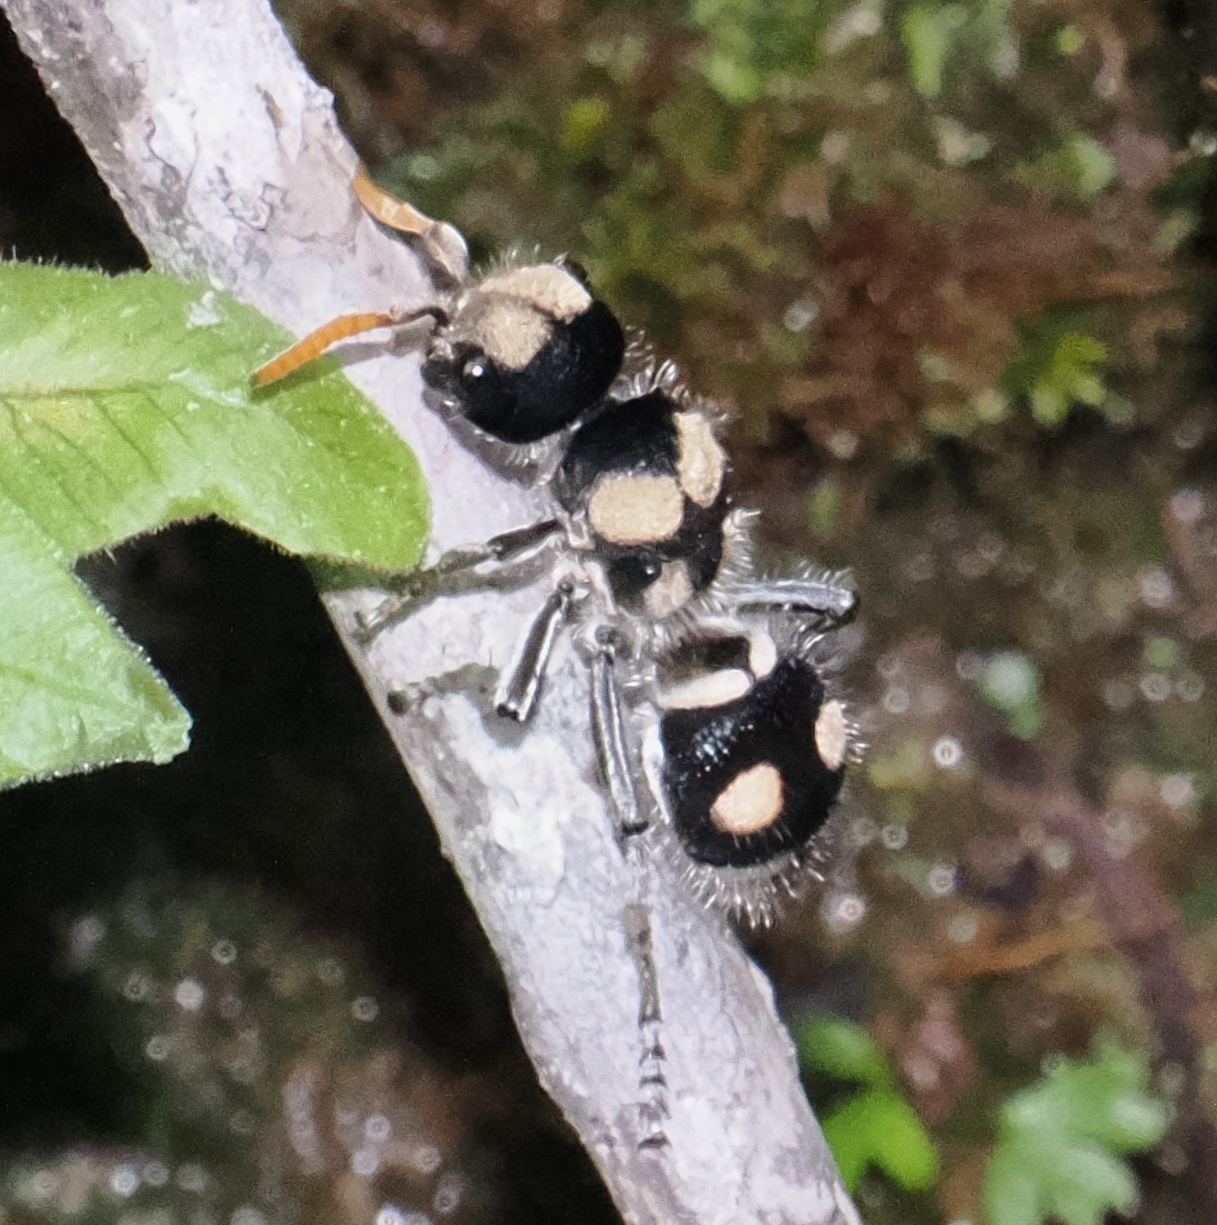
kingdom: Animalia
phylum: Arthropoda
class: Insecta
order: Hymenoptera
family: Mutillidae
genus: Hoplomutilla
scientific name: Hoplomutilla
